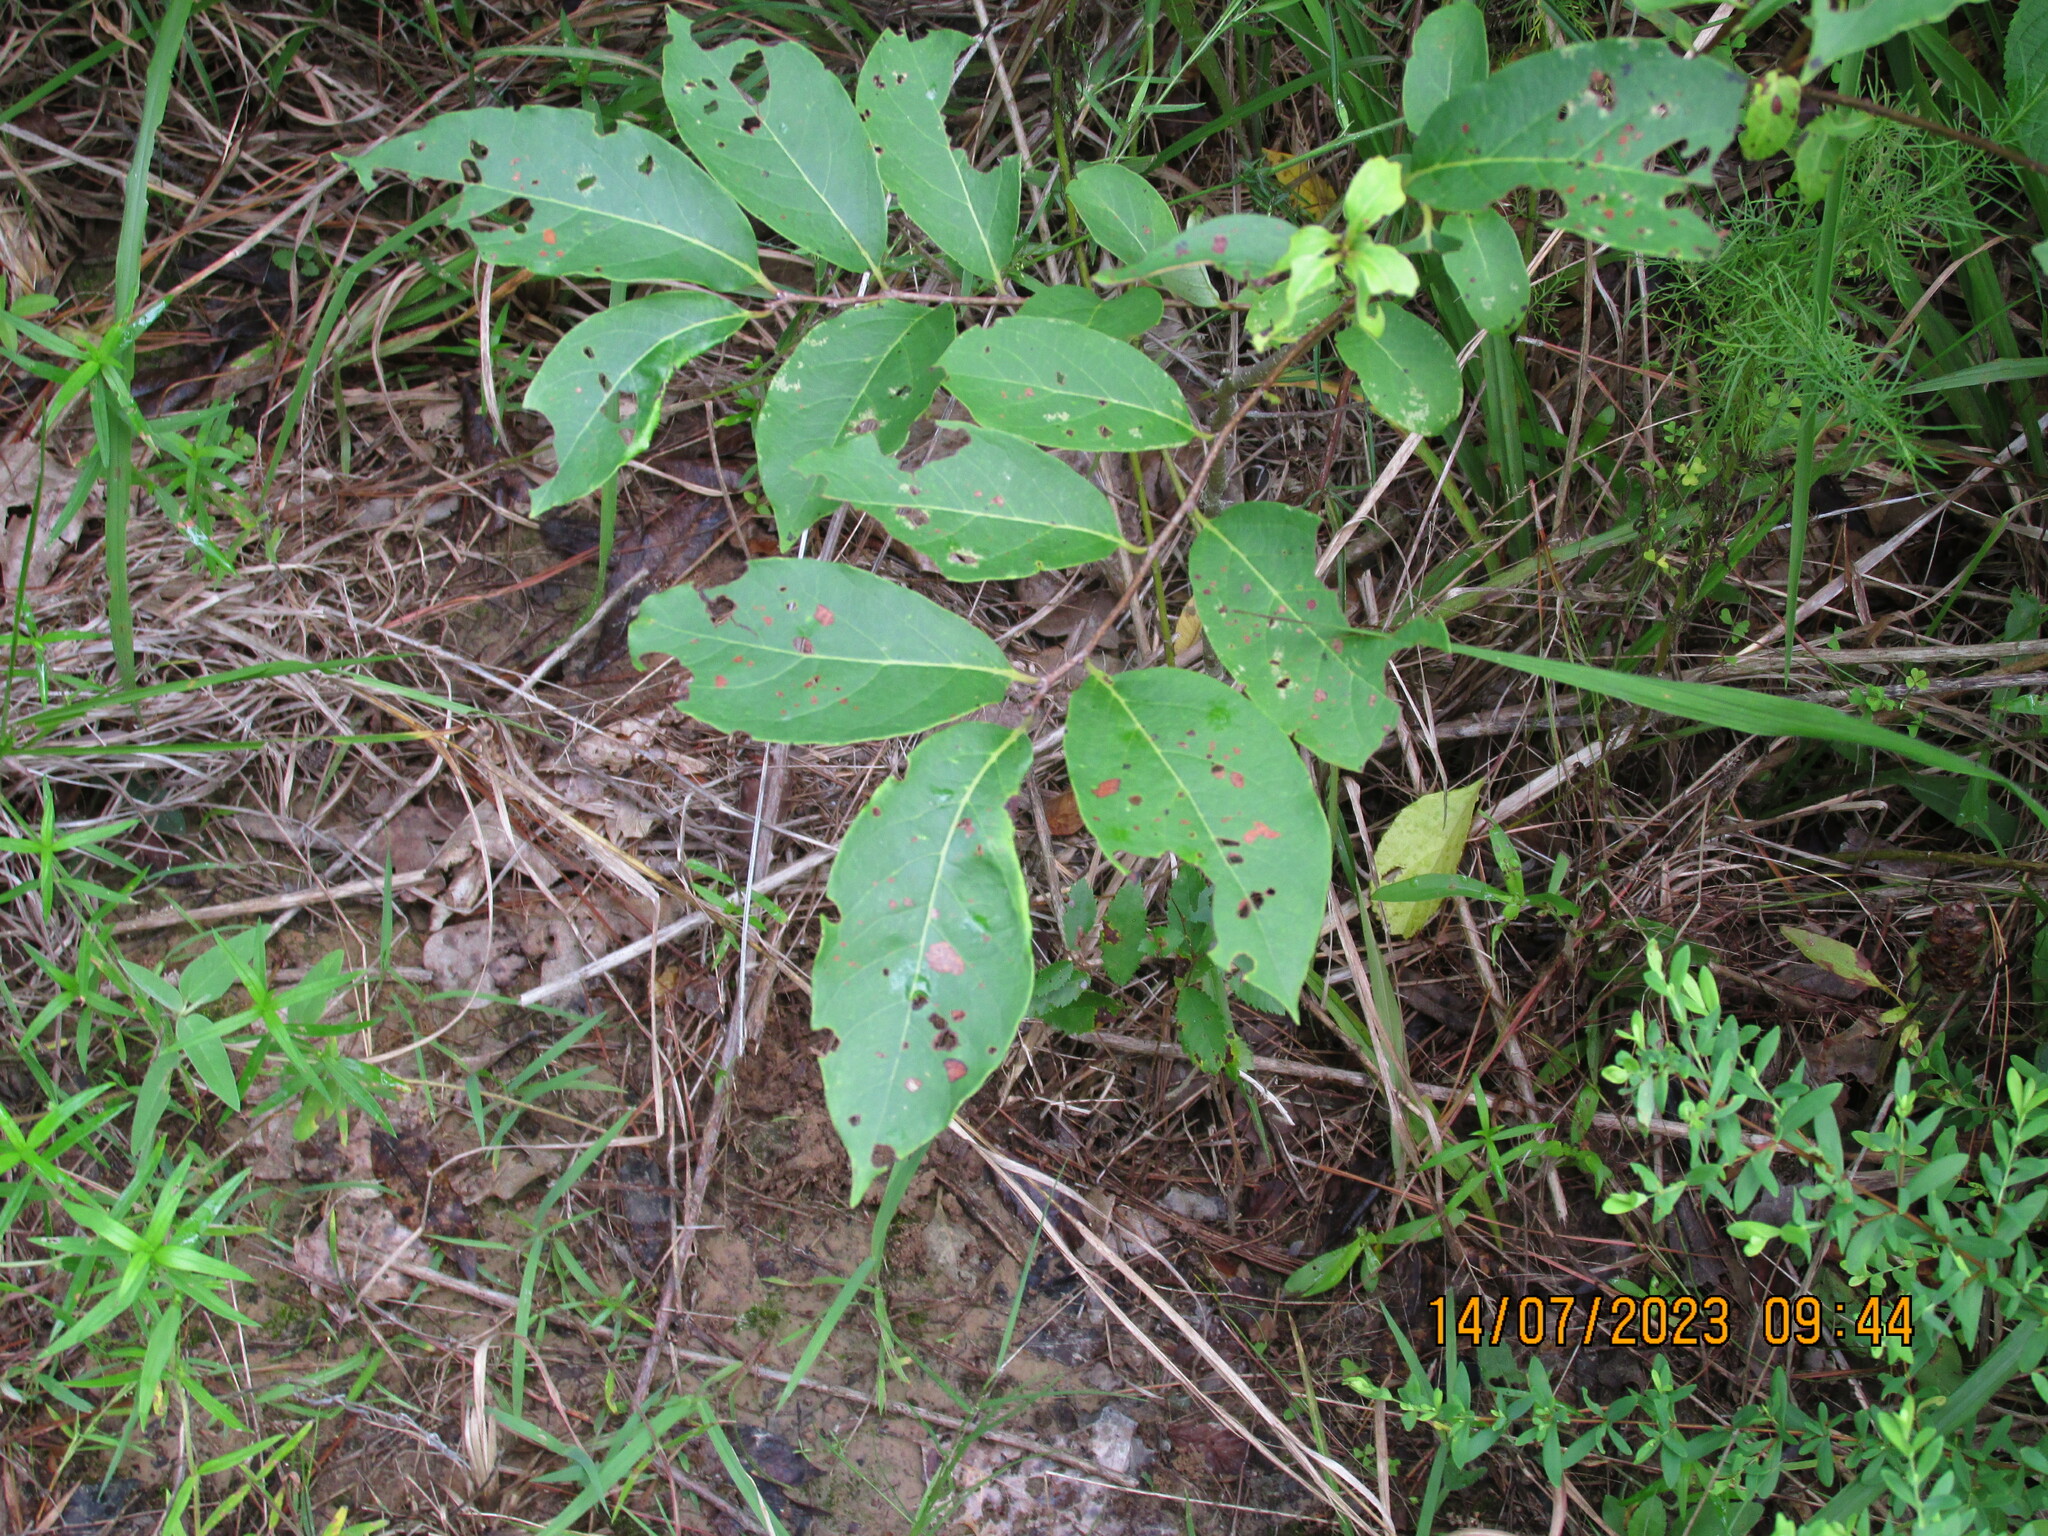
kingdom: Plantae
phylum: Tracheophyta
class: Magnoliopsida
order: Ericales
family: Ebenaceae
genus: Diospyros
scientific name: Diospyros virginiana
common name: Persimmon
